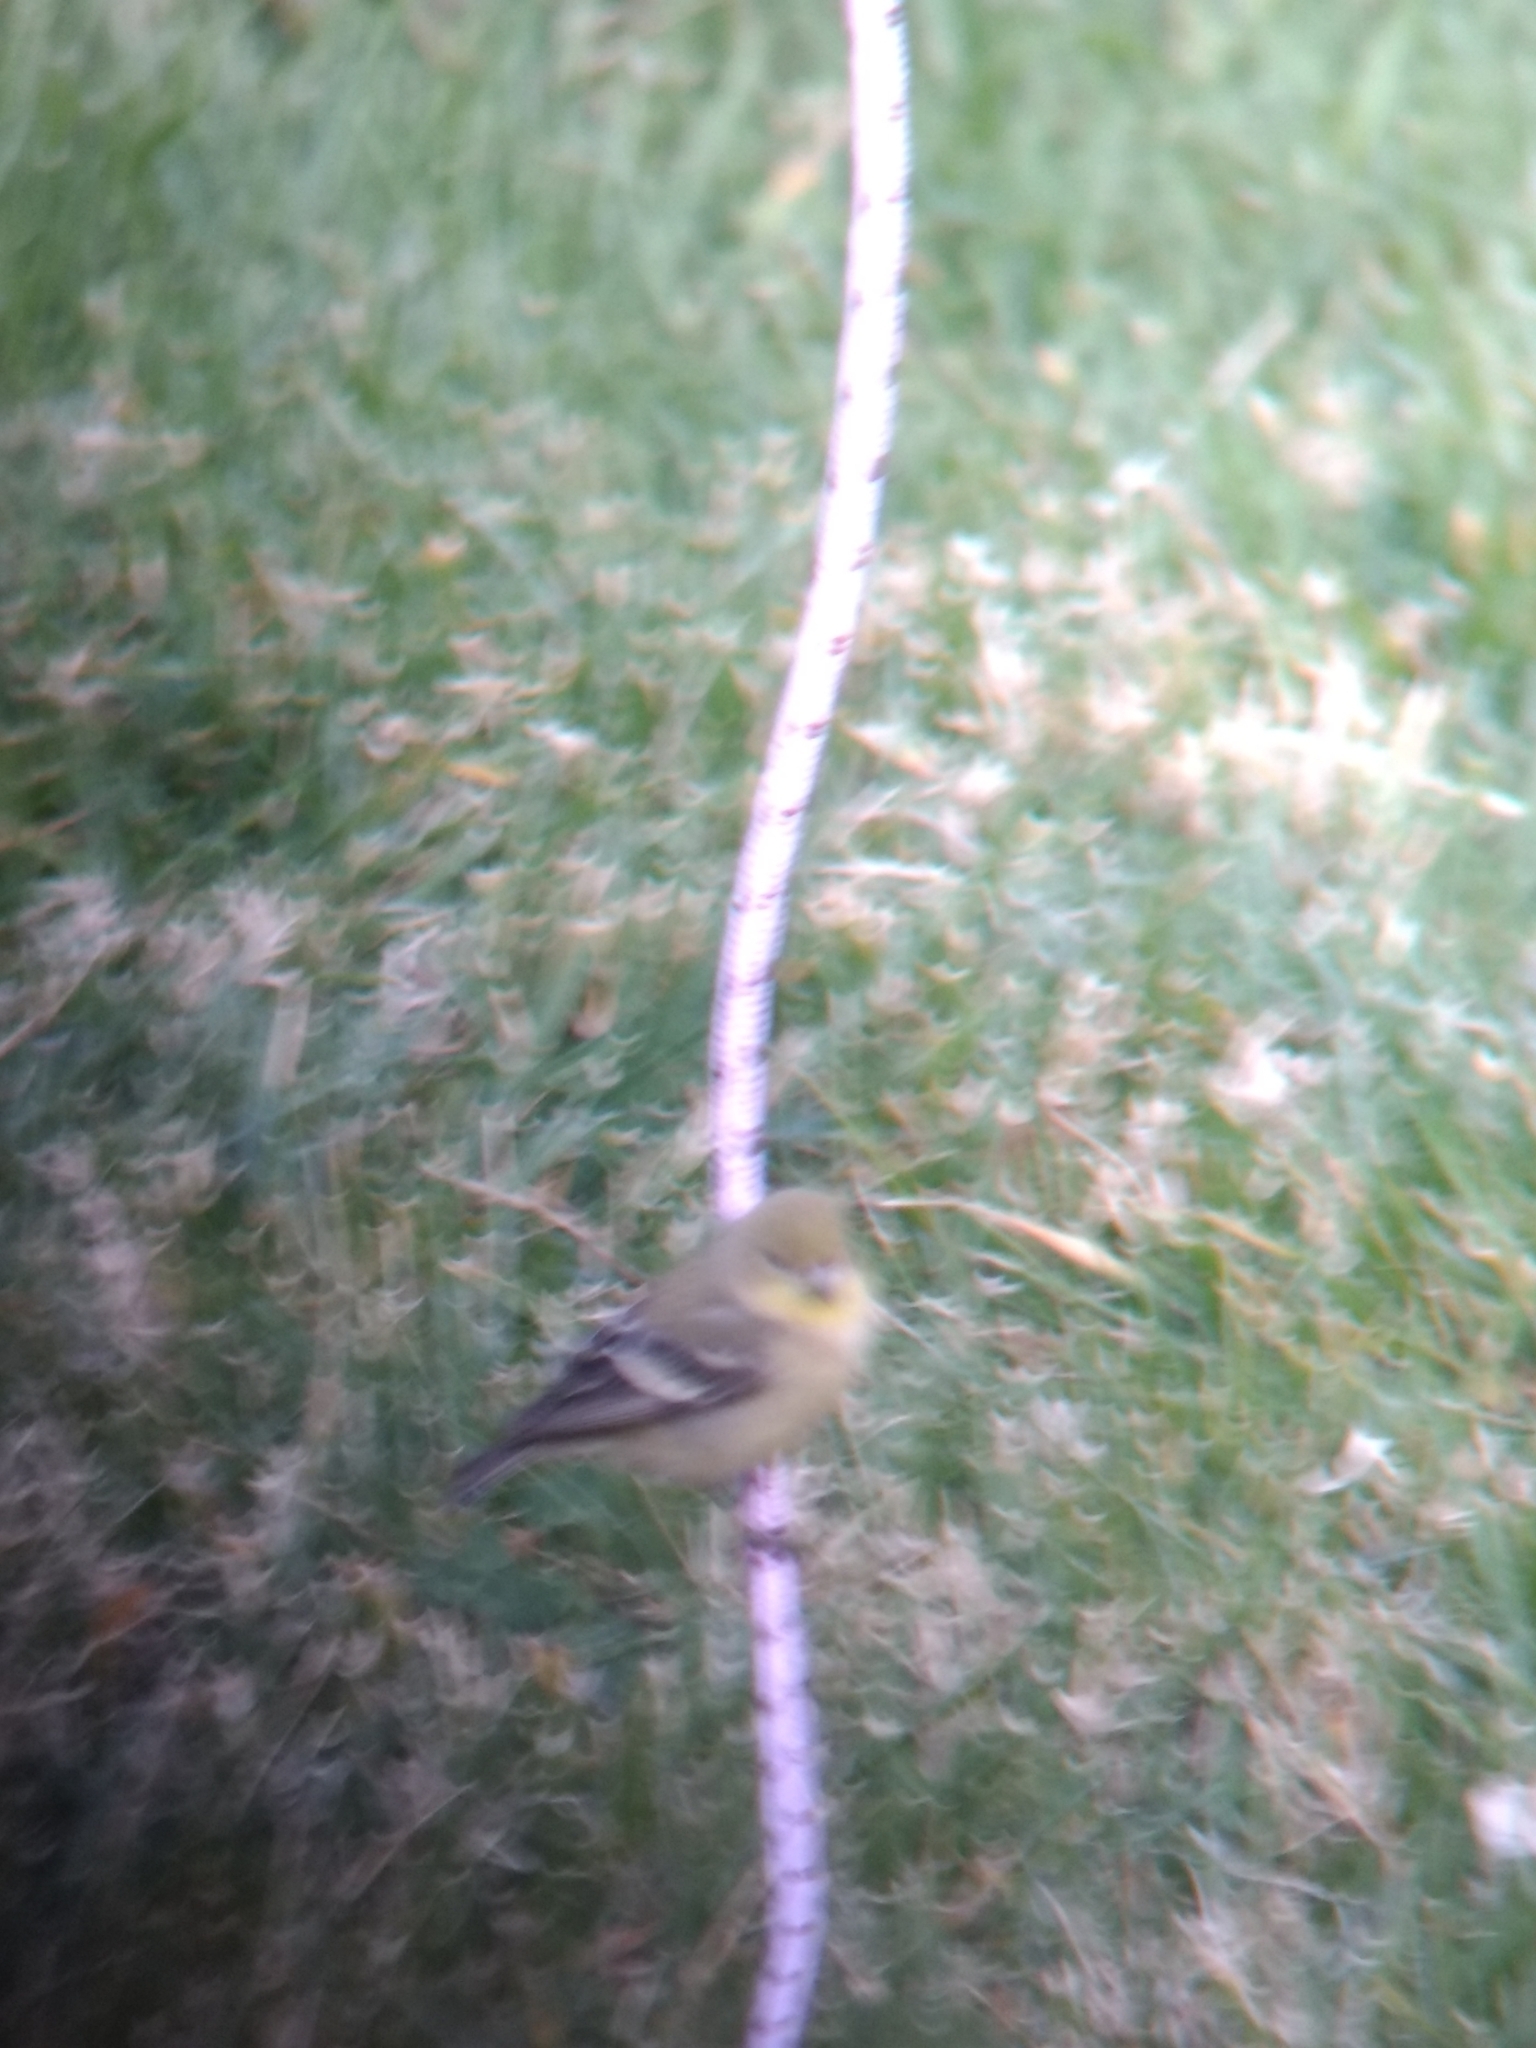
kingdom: Animalia
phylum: Chordata
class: Aves
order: Passeriformes
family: Fringillidae
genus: Spinus
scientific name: Spinus psaltria
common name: Lesser goldfinch
